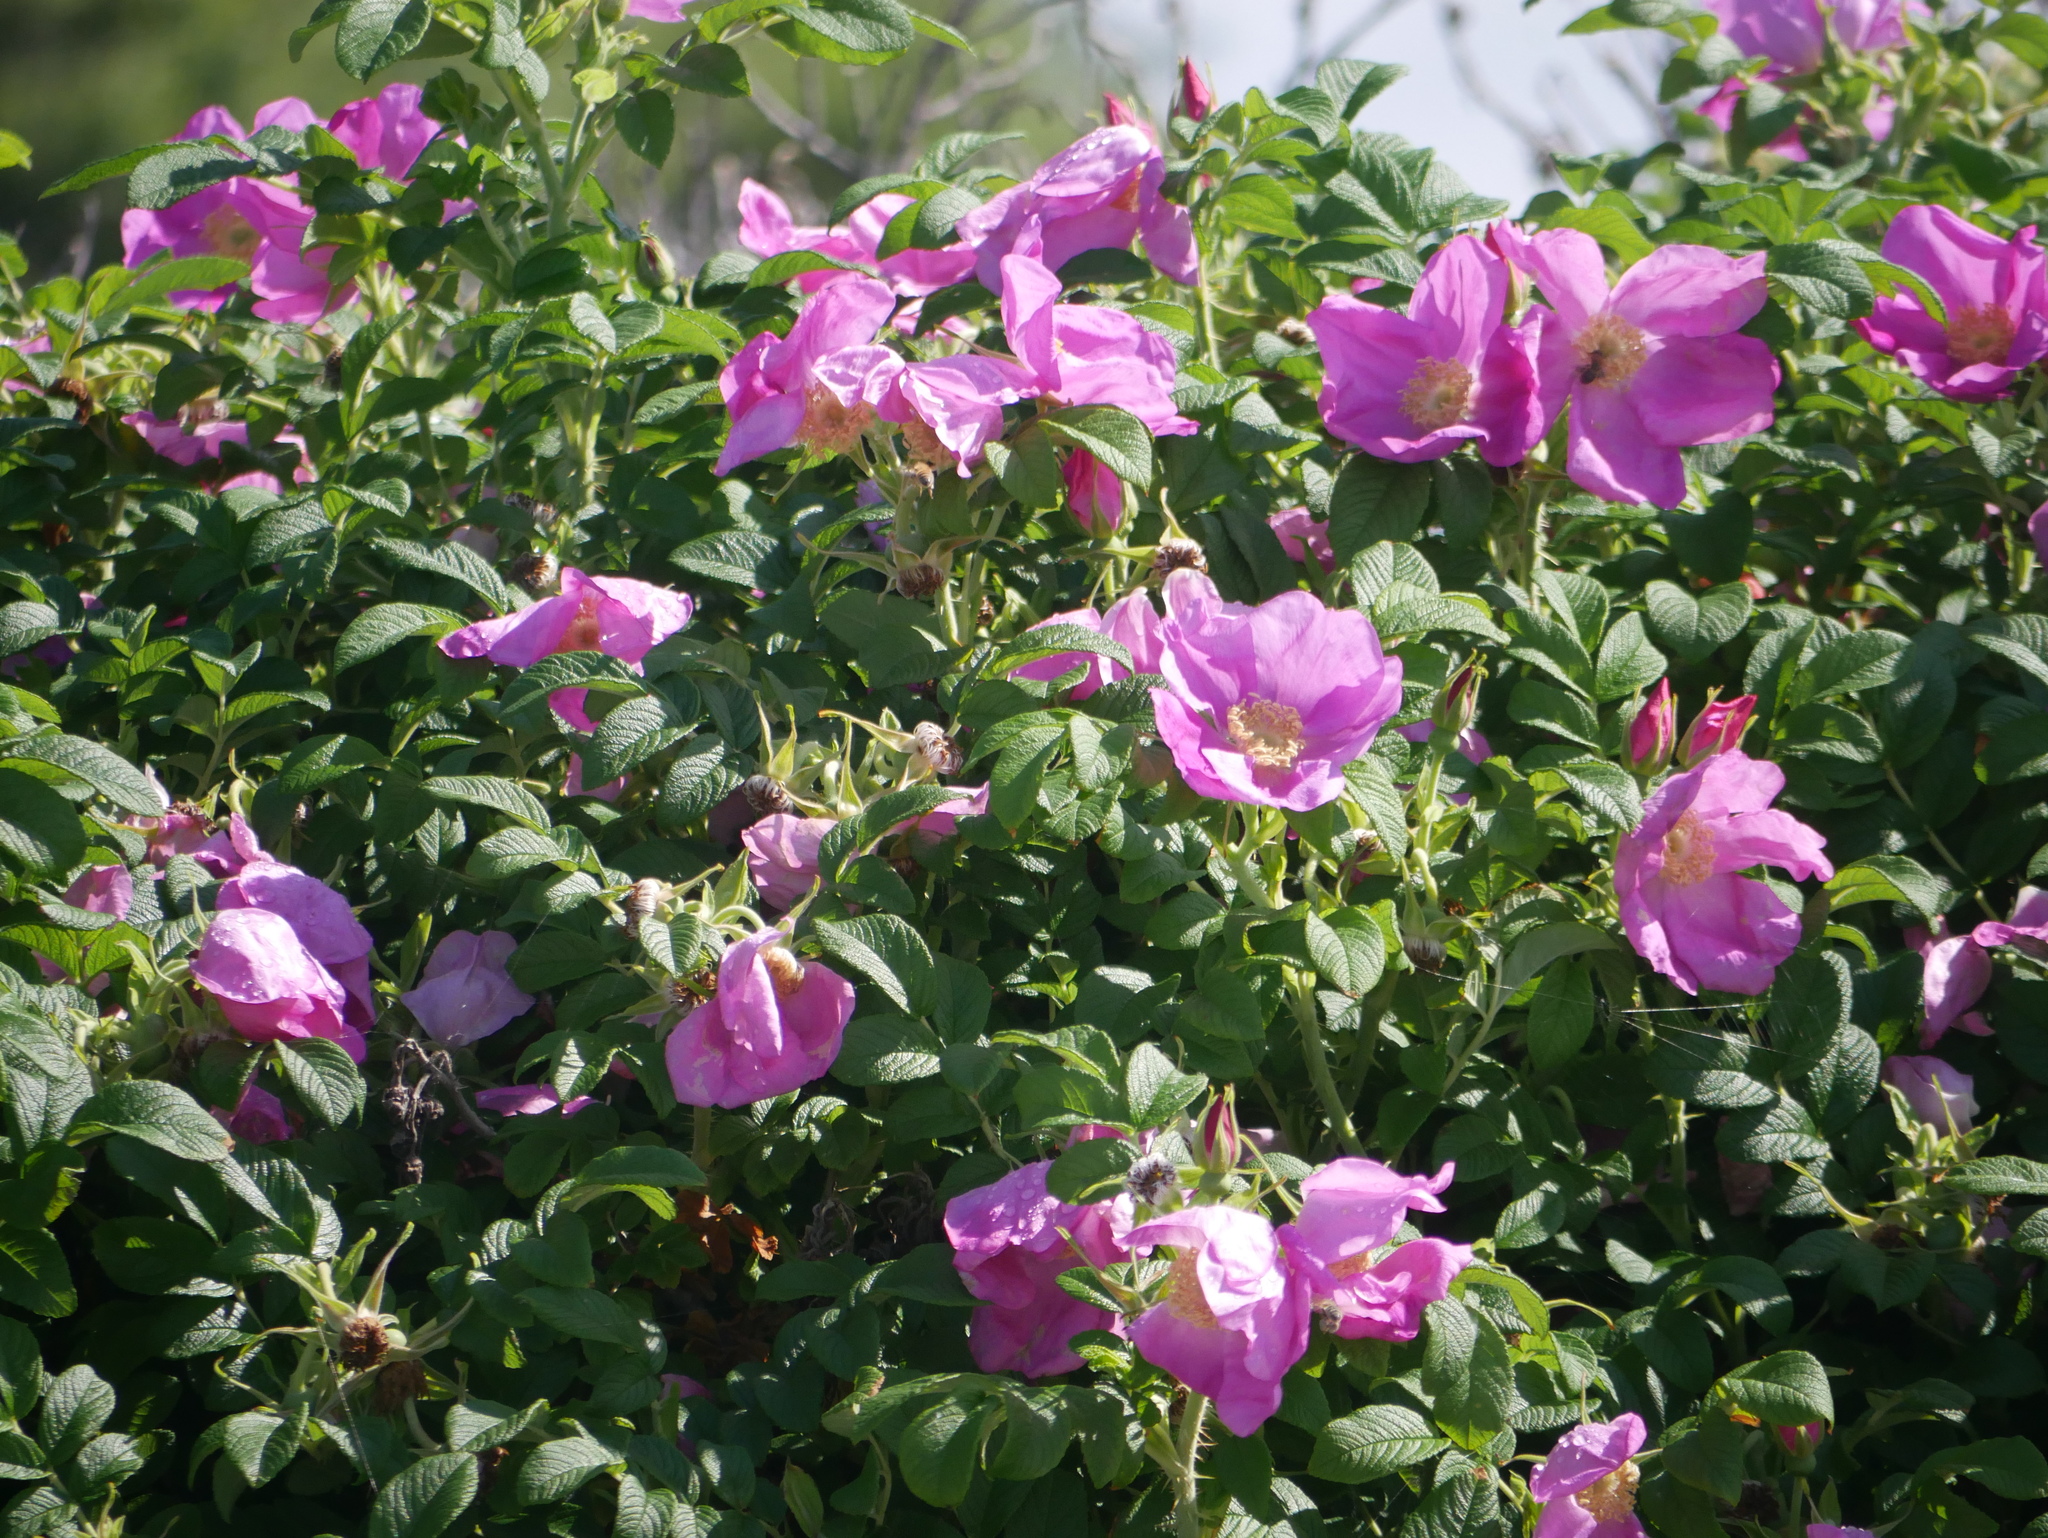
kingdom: Plantae
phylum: Tracheophyta
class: Magnoliopsida
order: Rosales
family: Rosaceae
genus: Rosa
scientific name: Rosa rugosa
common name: Japanese rose
